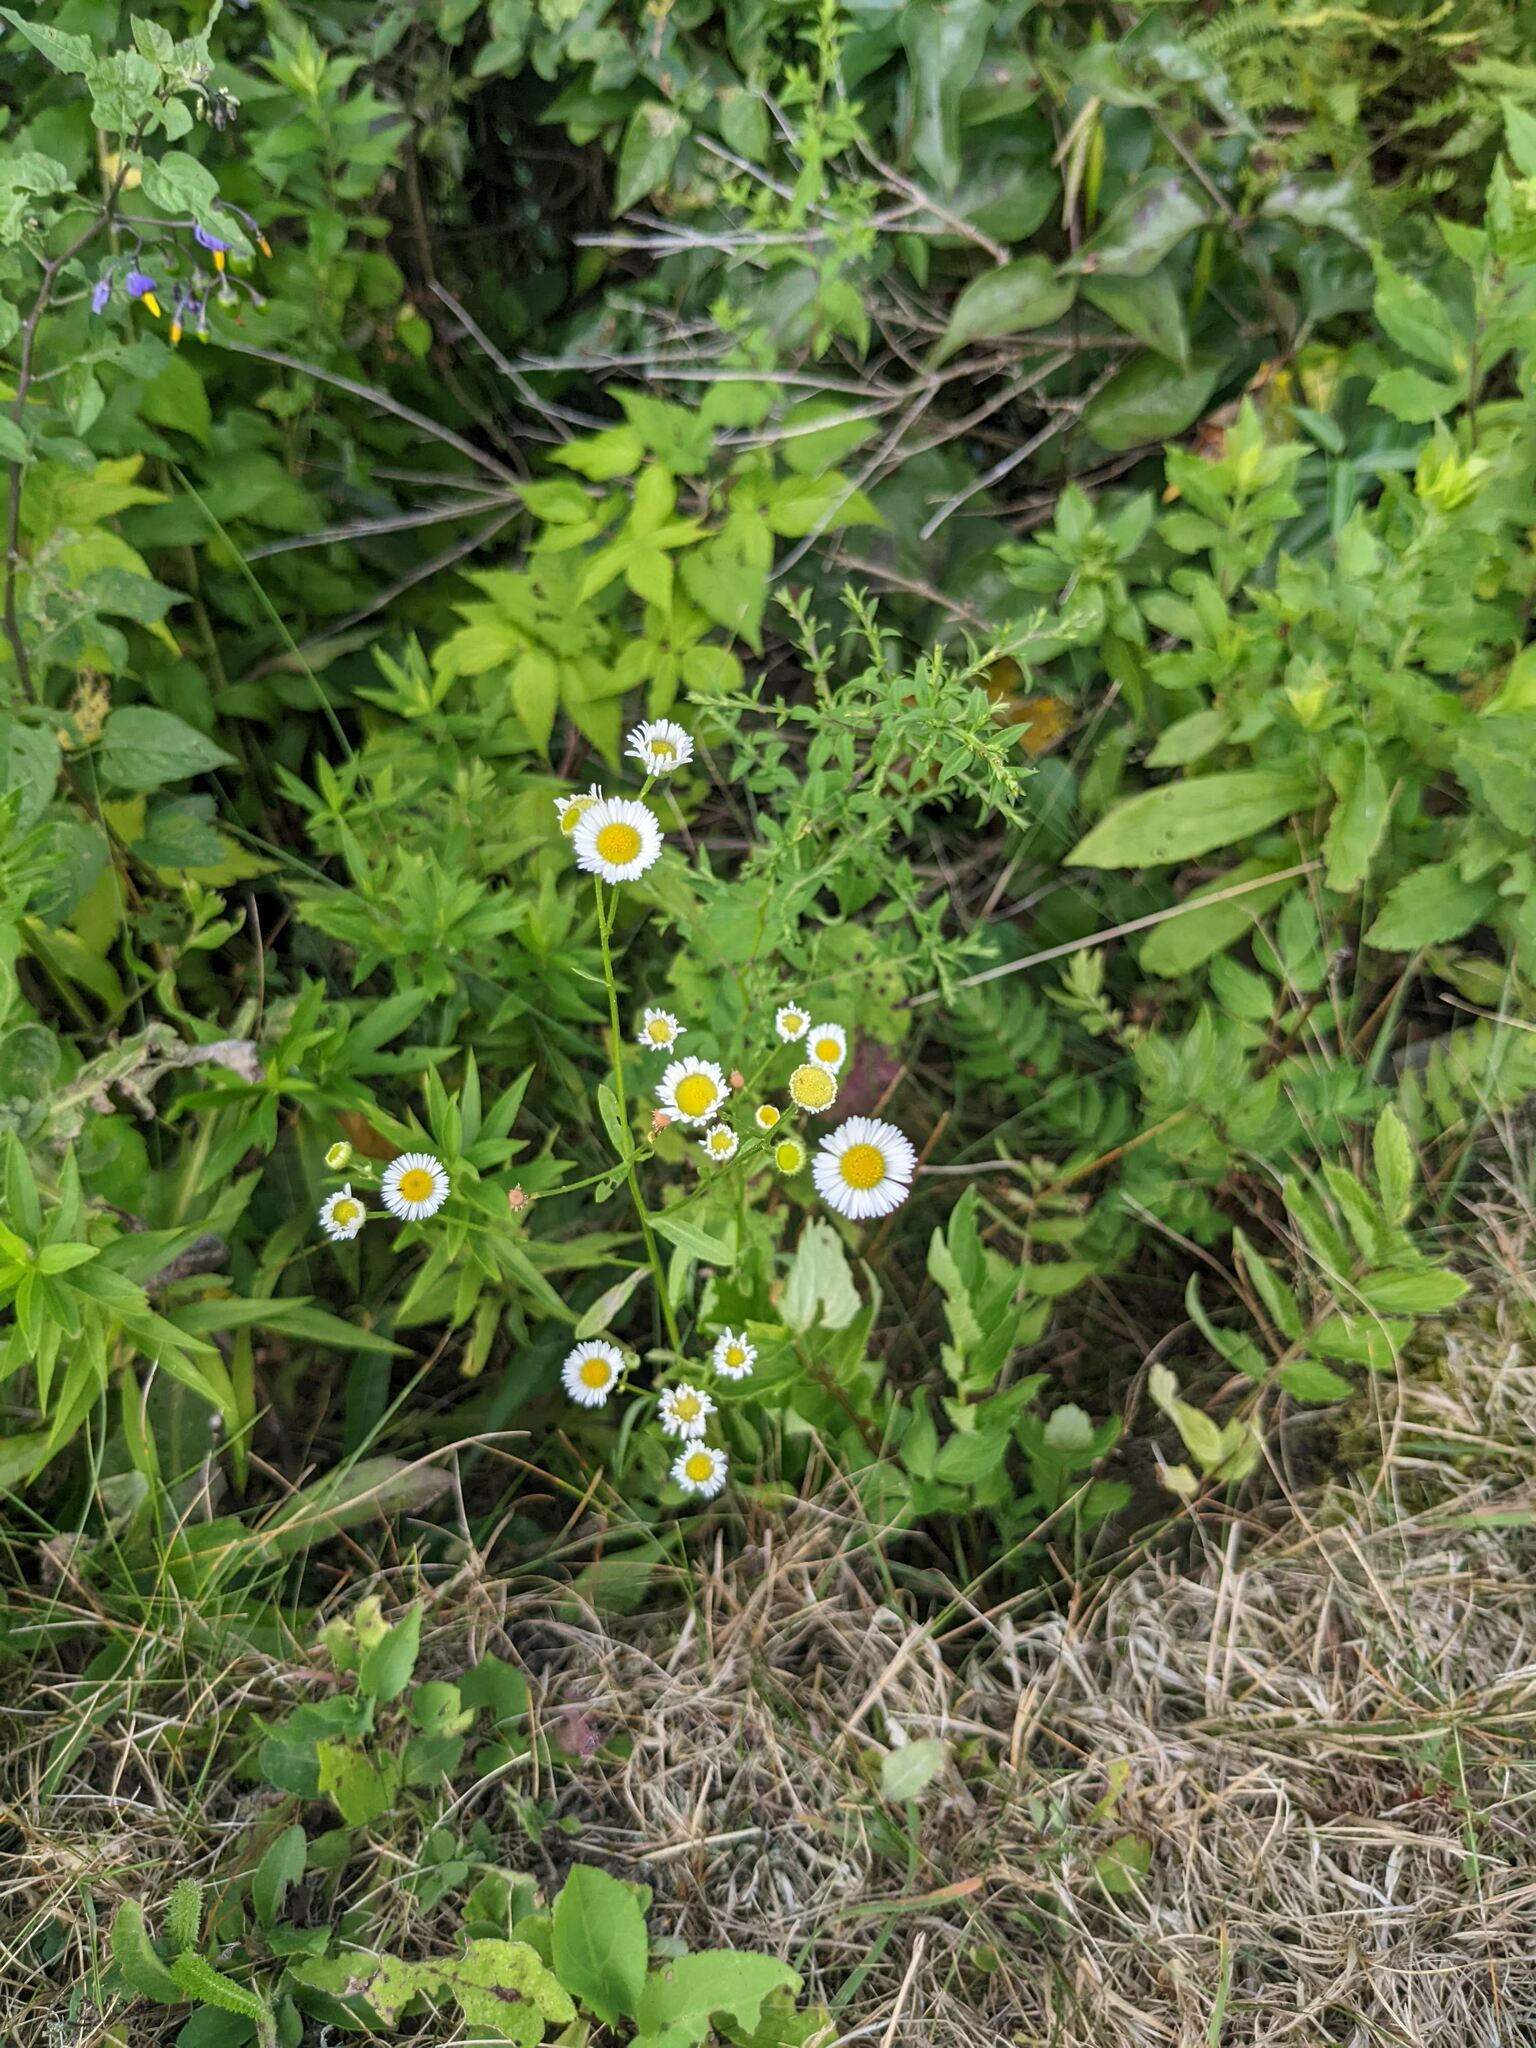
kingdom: Plantae
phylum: Tracheophyta
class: Magnoliopsida
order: Asterales
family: Asteraceae
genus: Erigeron
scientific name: Erigeron annuus
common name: Tall fleabane
